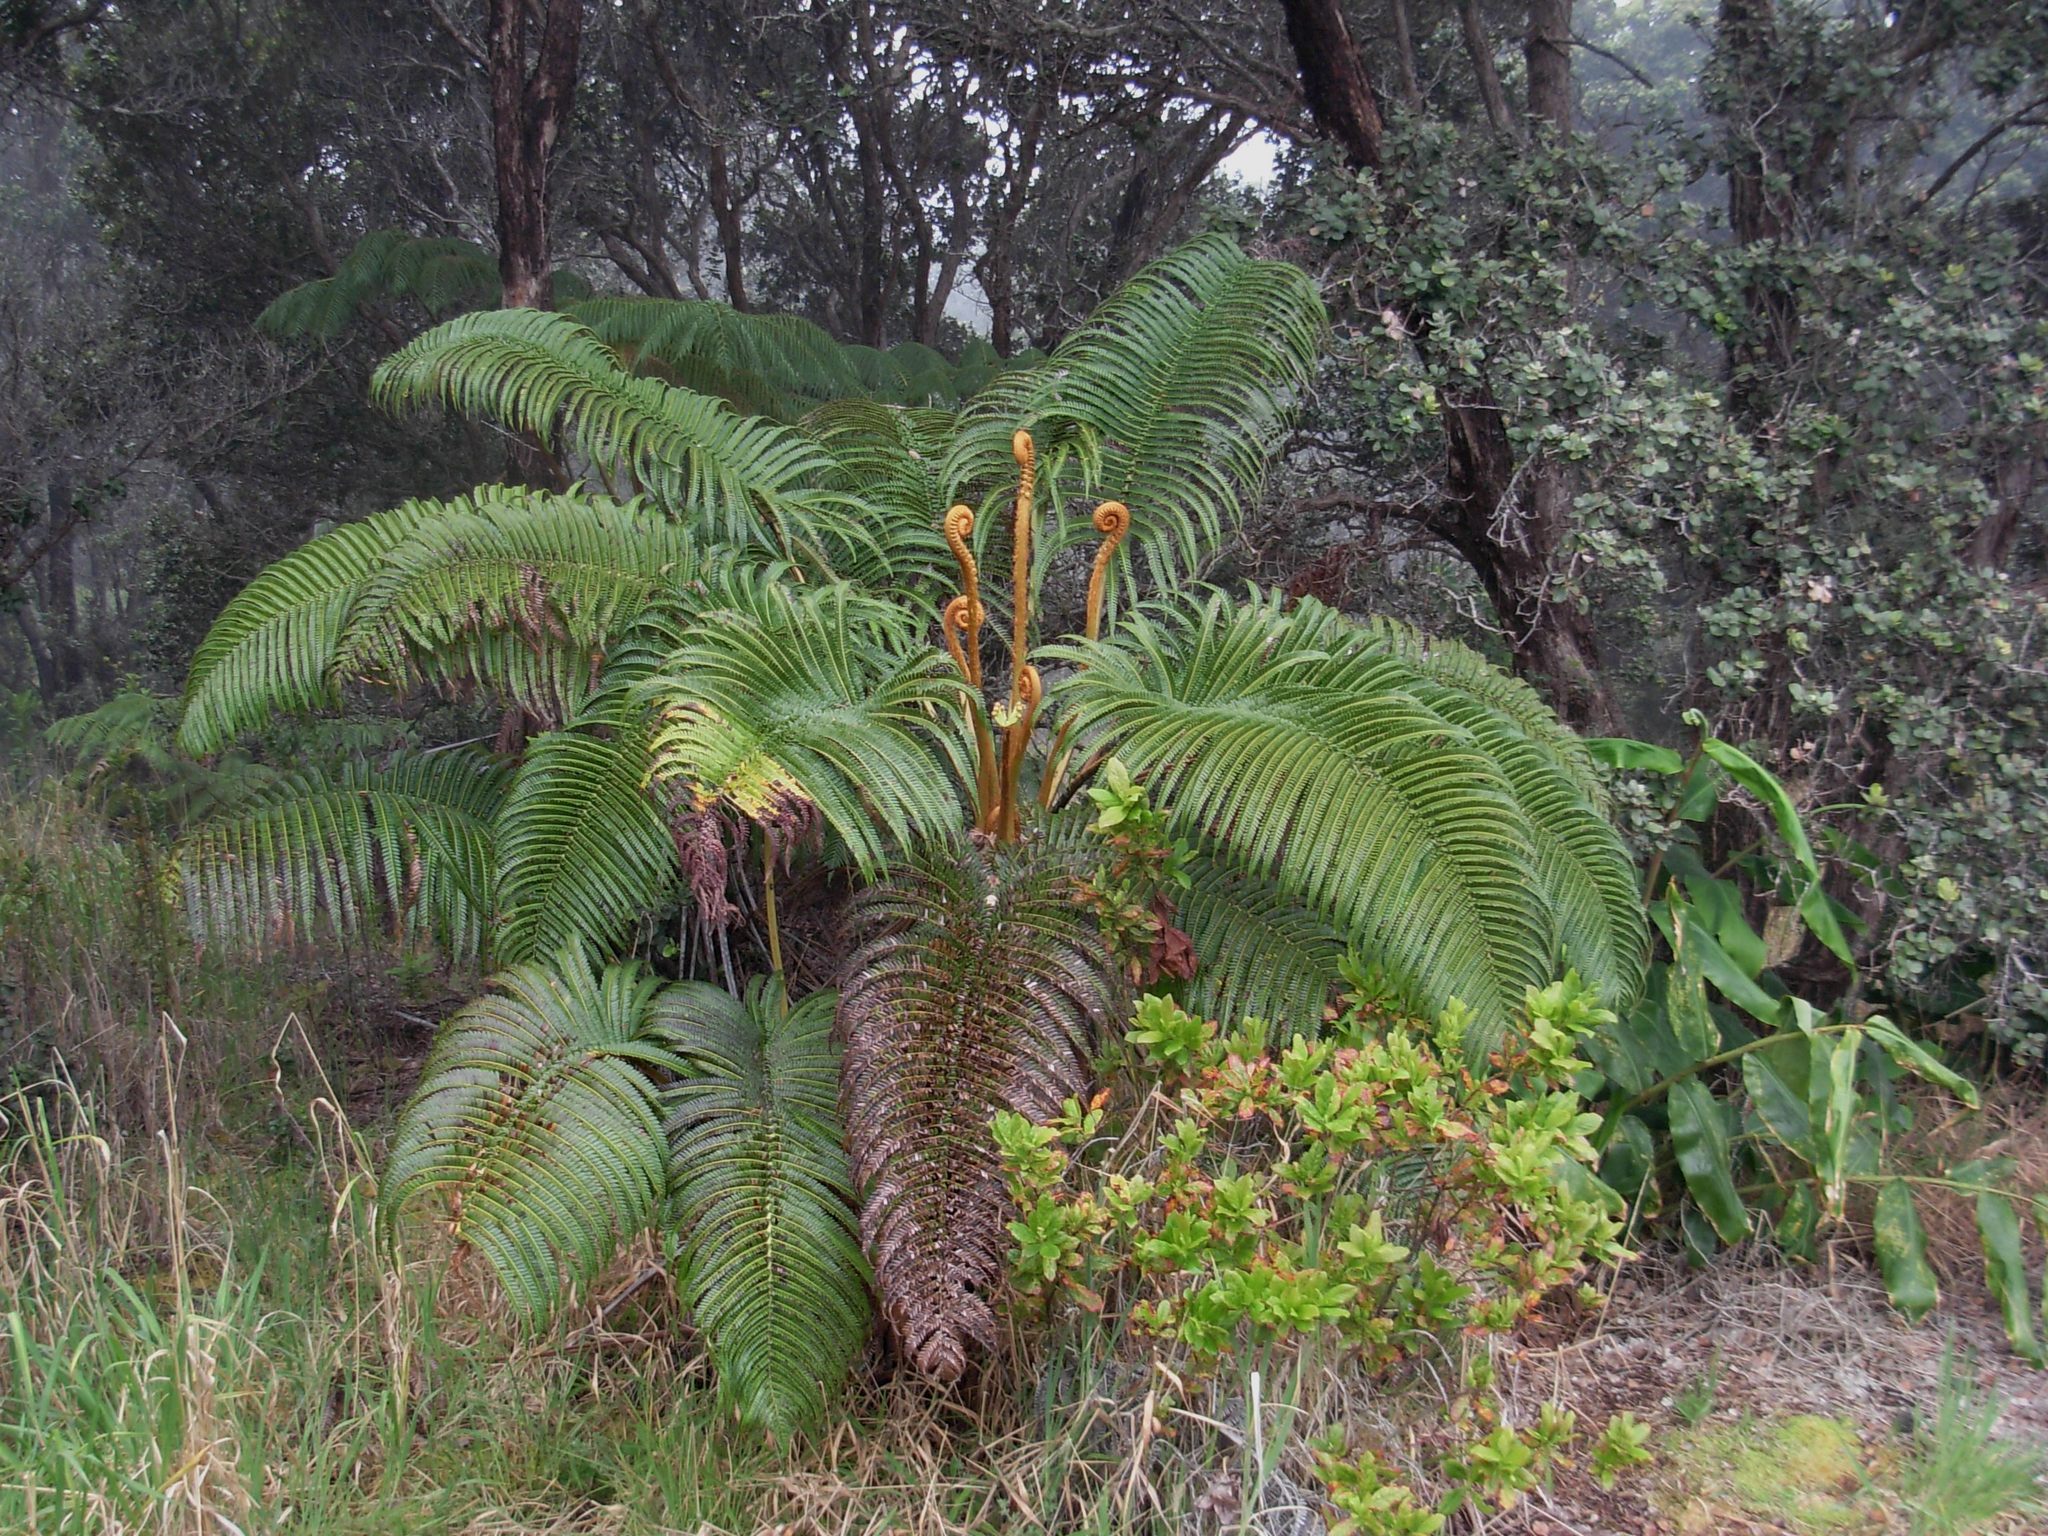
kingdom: Plantae
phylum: Tracheophyta
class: Polypodiopsida
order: Polypodiales
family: Blechnaceae
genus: Sadleria
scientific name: Sadleria cyatheoides
